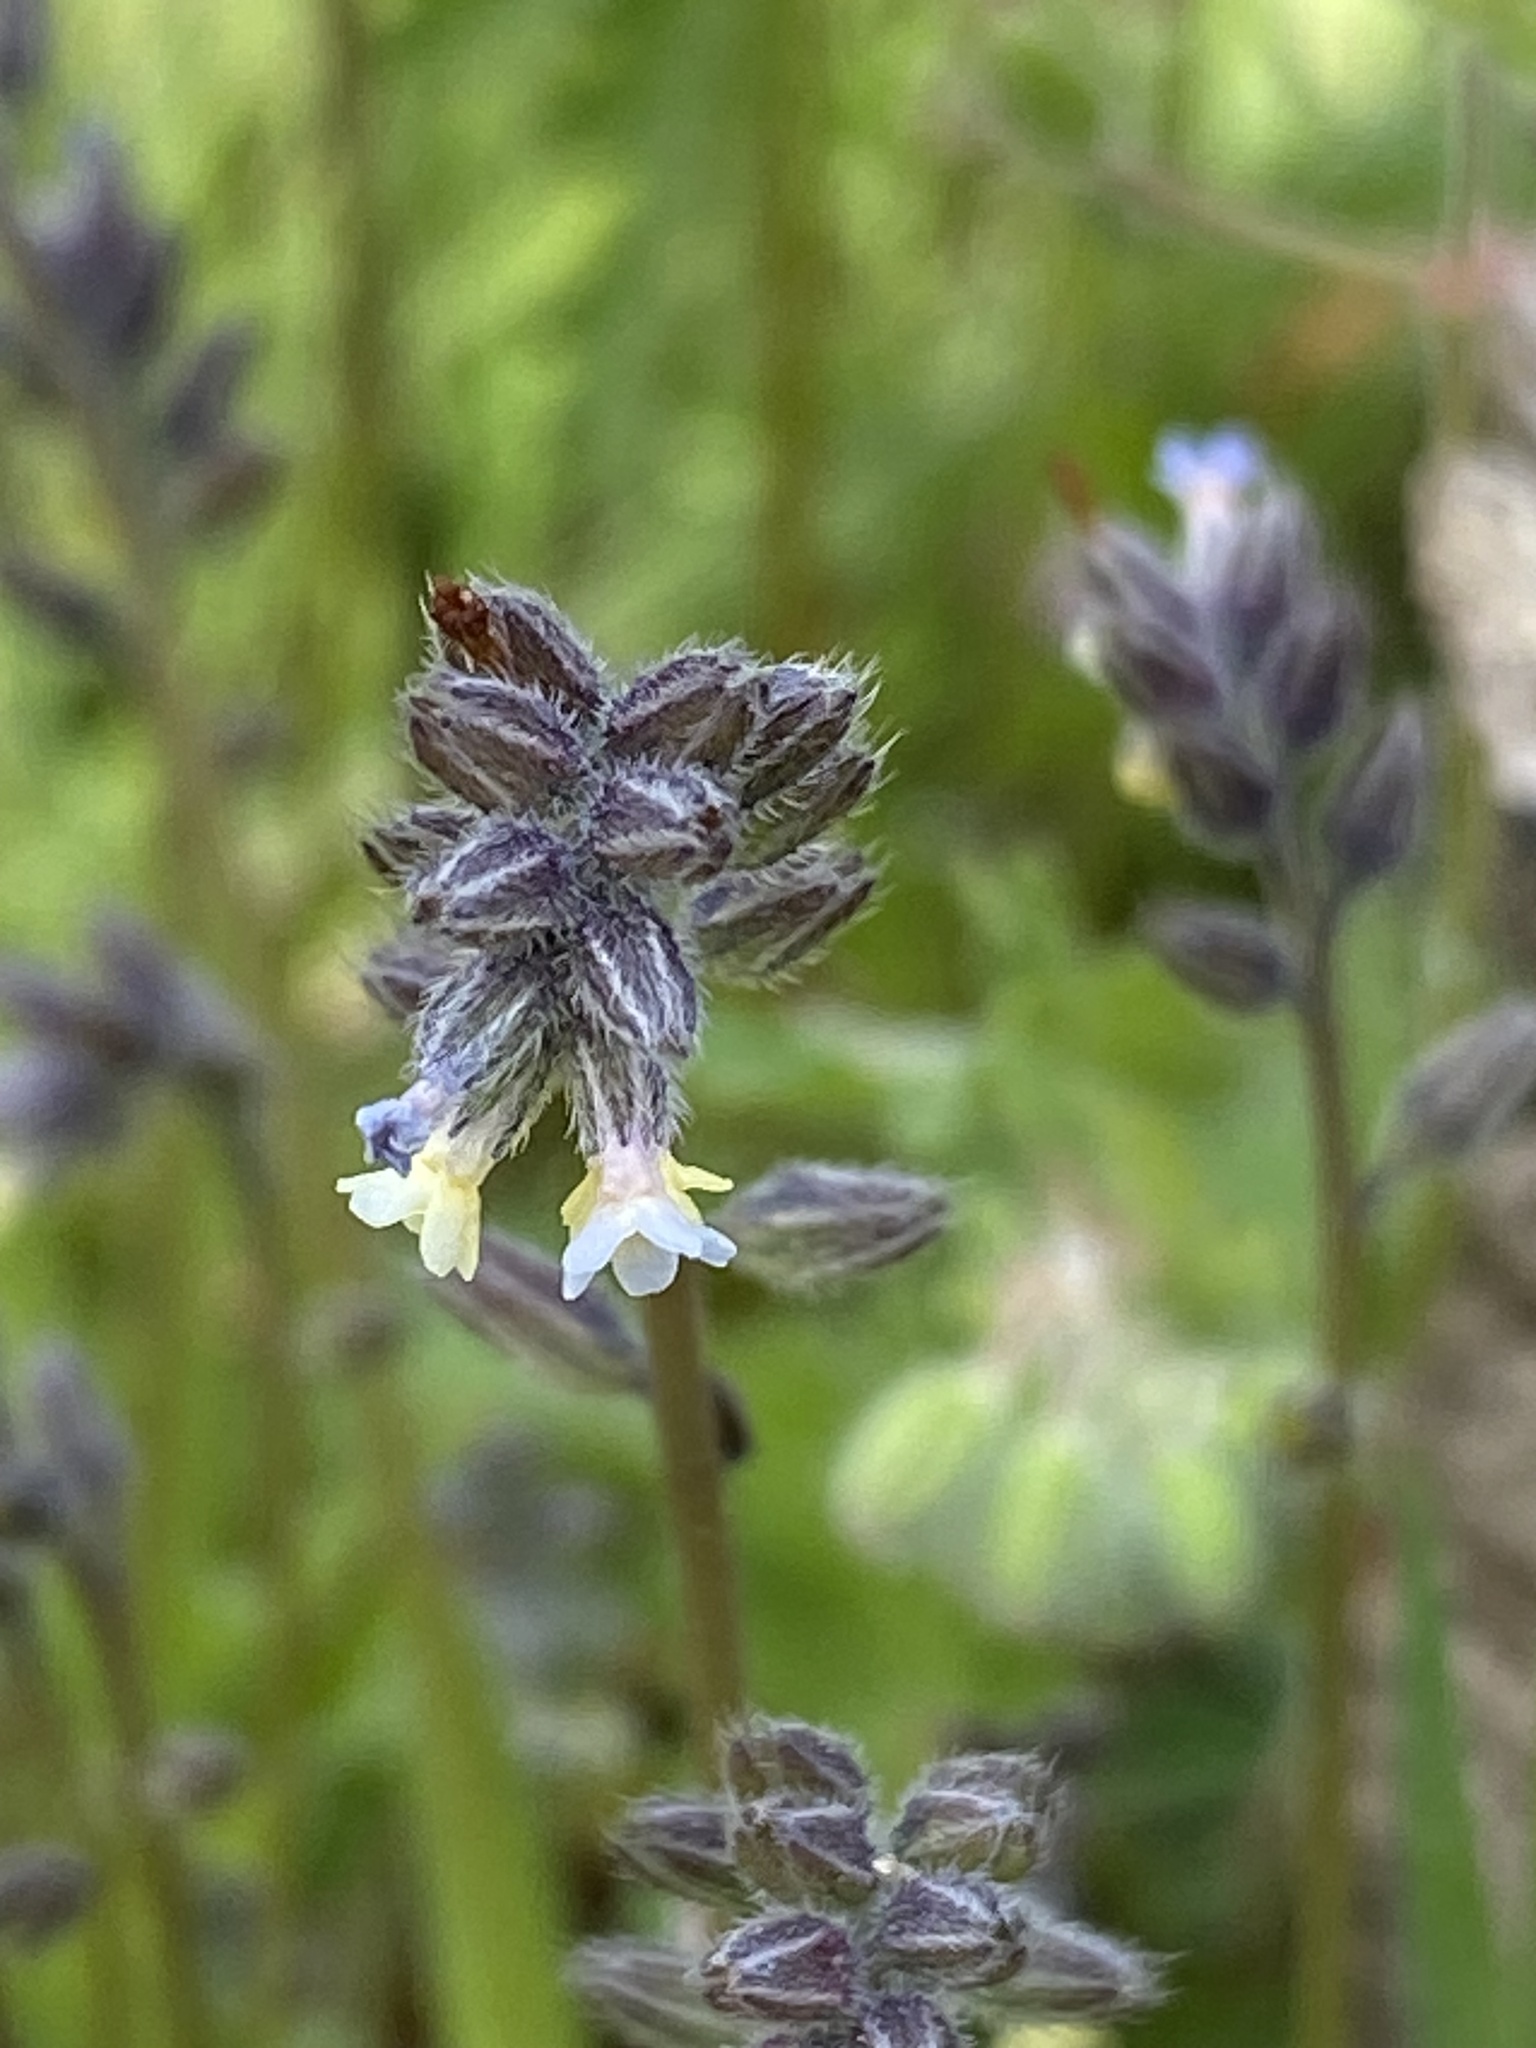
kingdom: Plantae
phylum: Tracheophyta
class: Magnoliopsida
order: Boraginales
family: Boraginaceae
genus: Myosotis
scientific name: Myosotis discolor
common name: Changing forget-me-not
